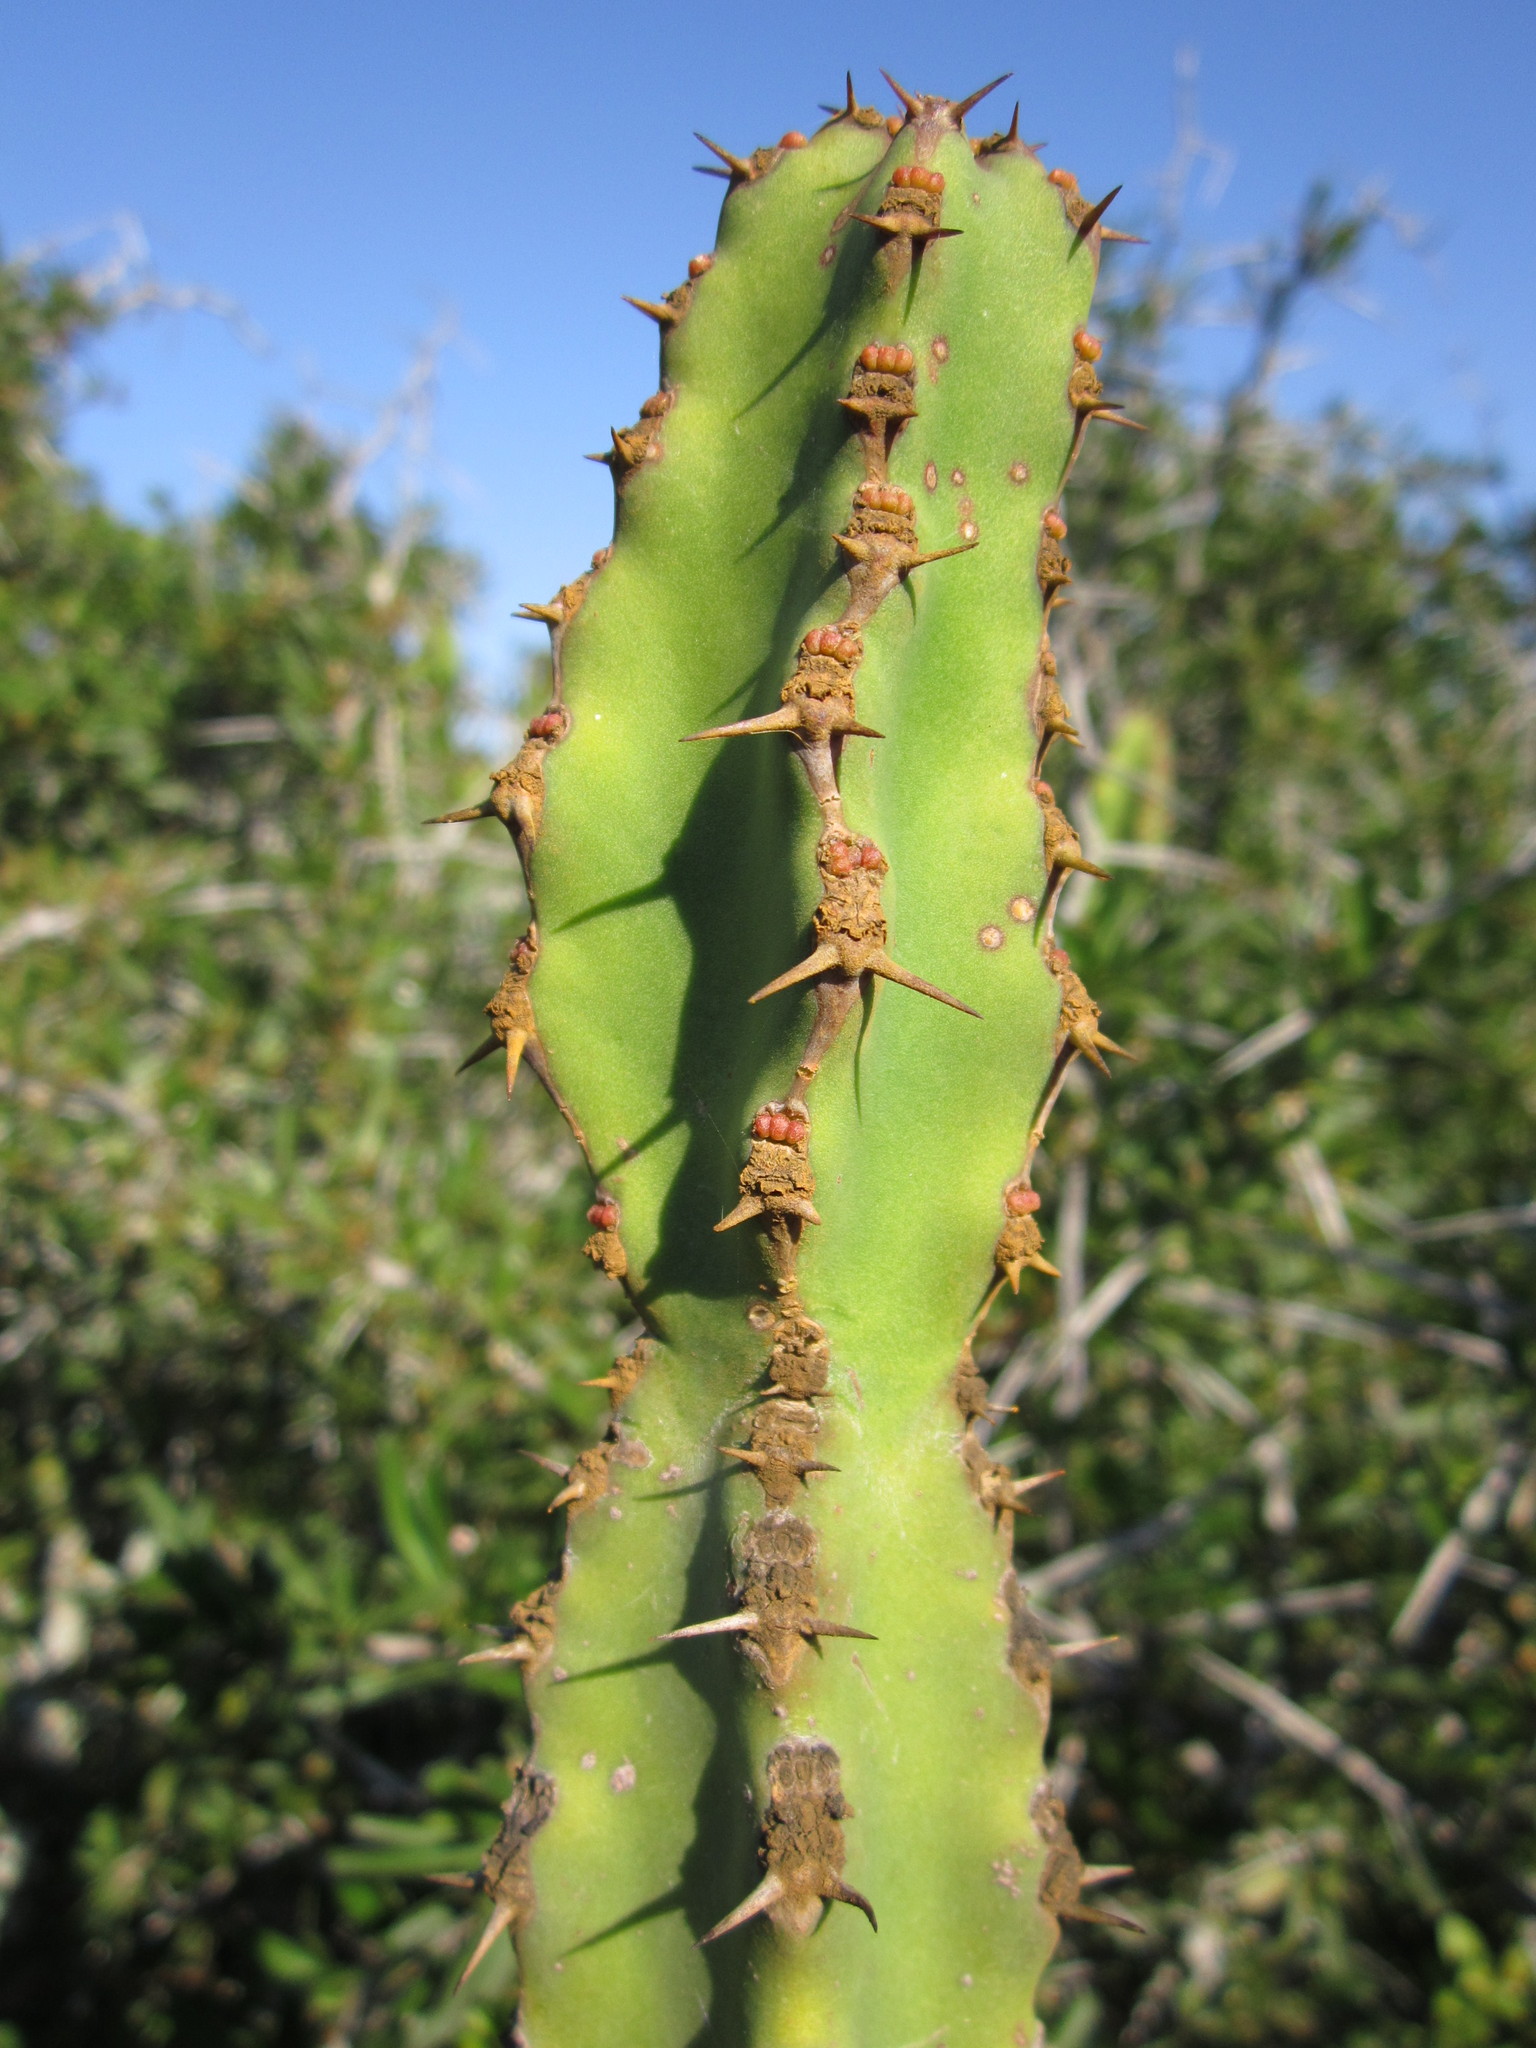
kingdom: Plantae
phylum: Tracheophyta
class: Magnoliopsida
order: Malpighiales
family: Euphorbiaceae
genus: Euphorbia
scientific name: Euphorbia caerulescens
